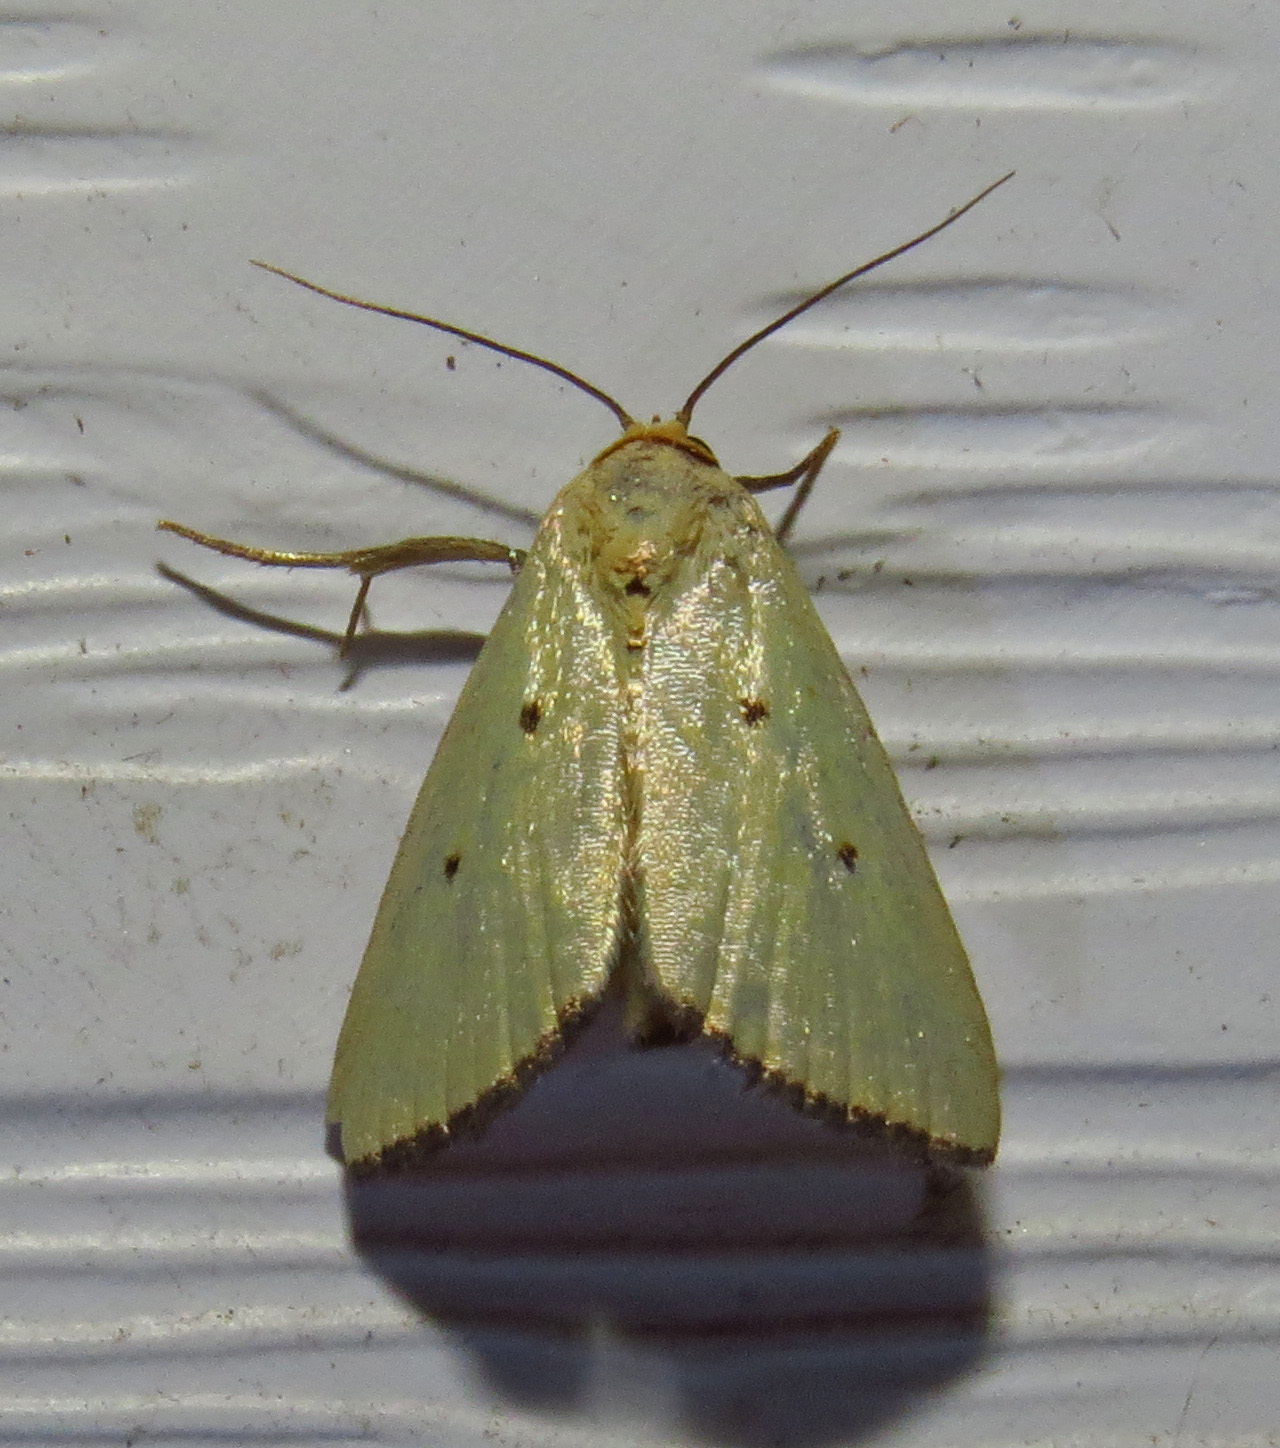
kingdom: Animalia
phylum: Arthropoda
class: Insecta
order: Lepidoptera
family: Noctuidae
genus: Marimatha
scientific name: Marimatha nigrofimbria
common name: Black-bordered lemon moth
